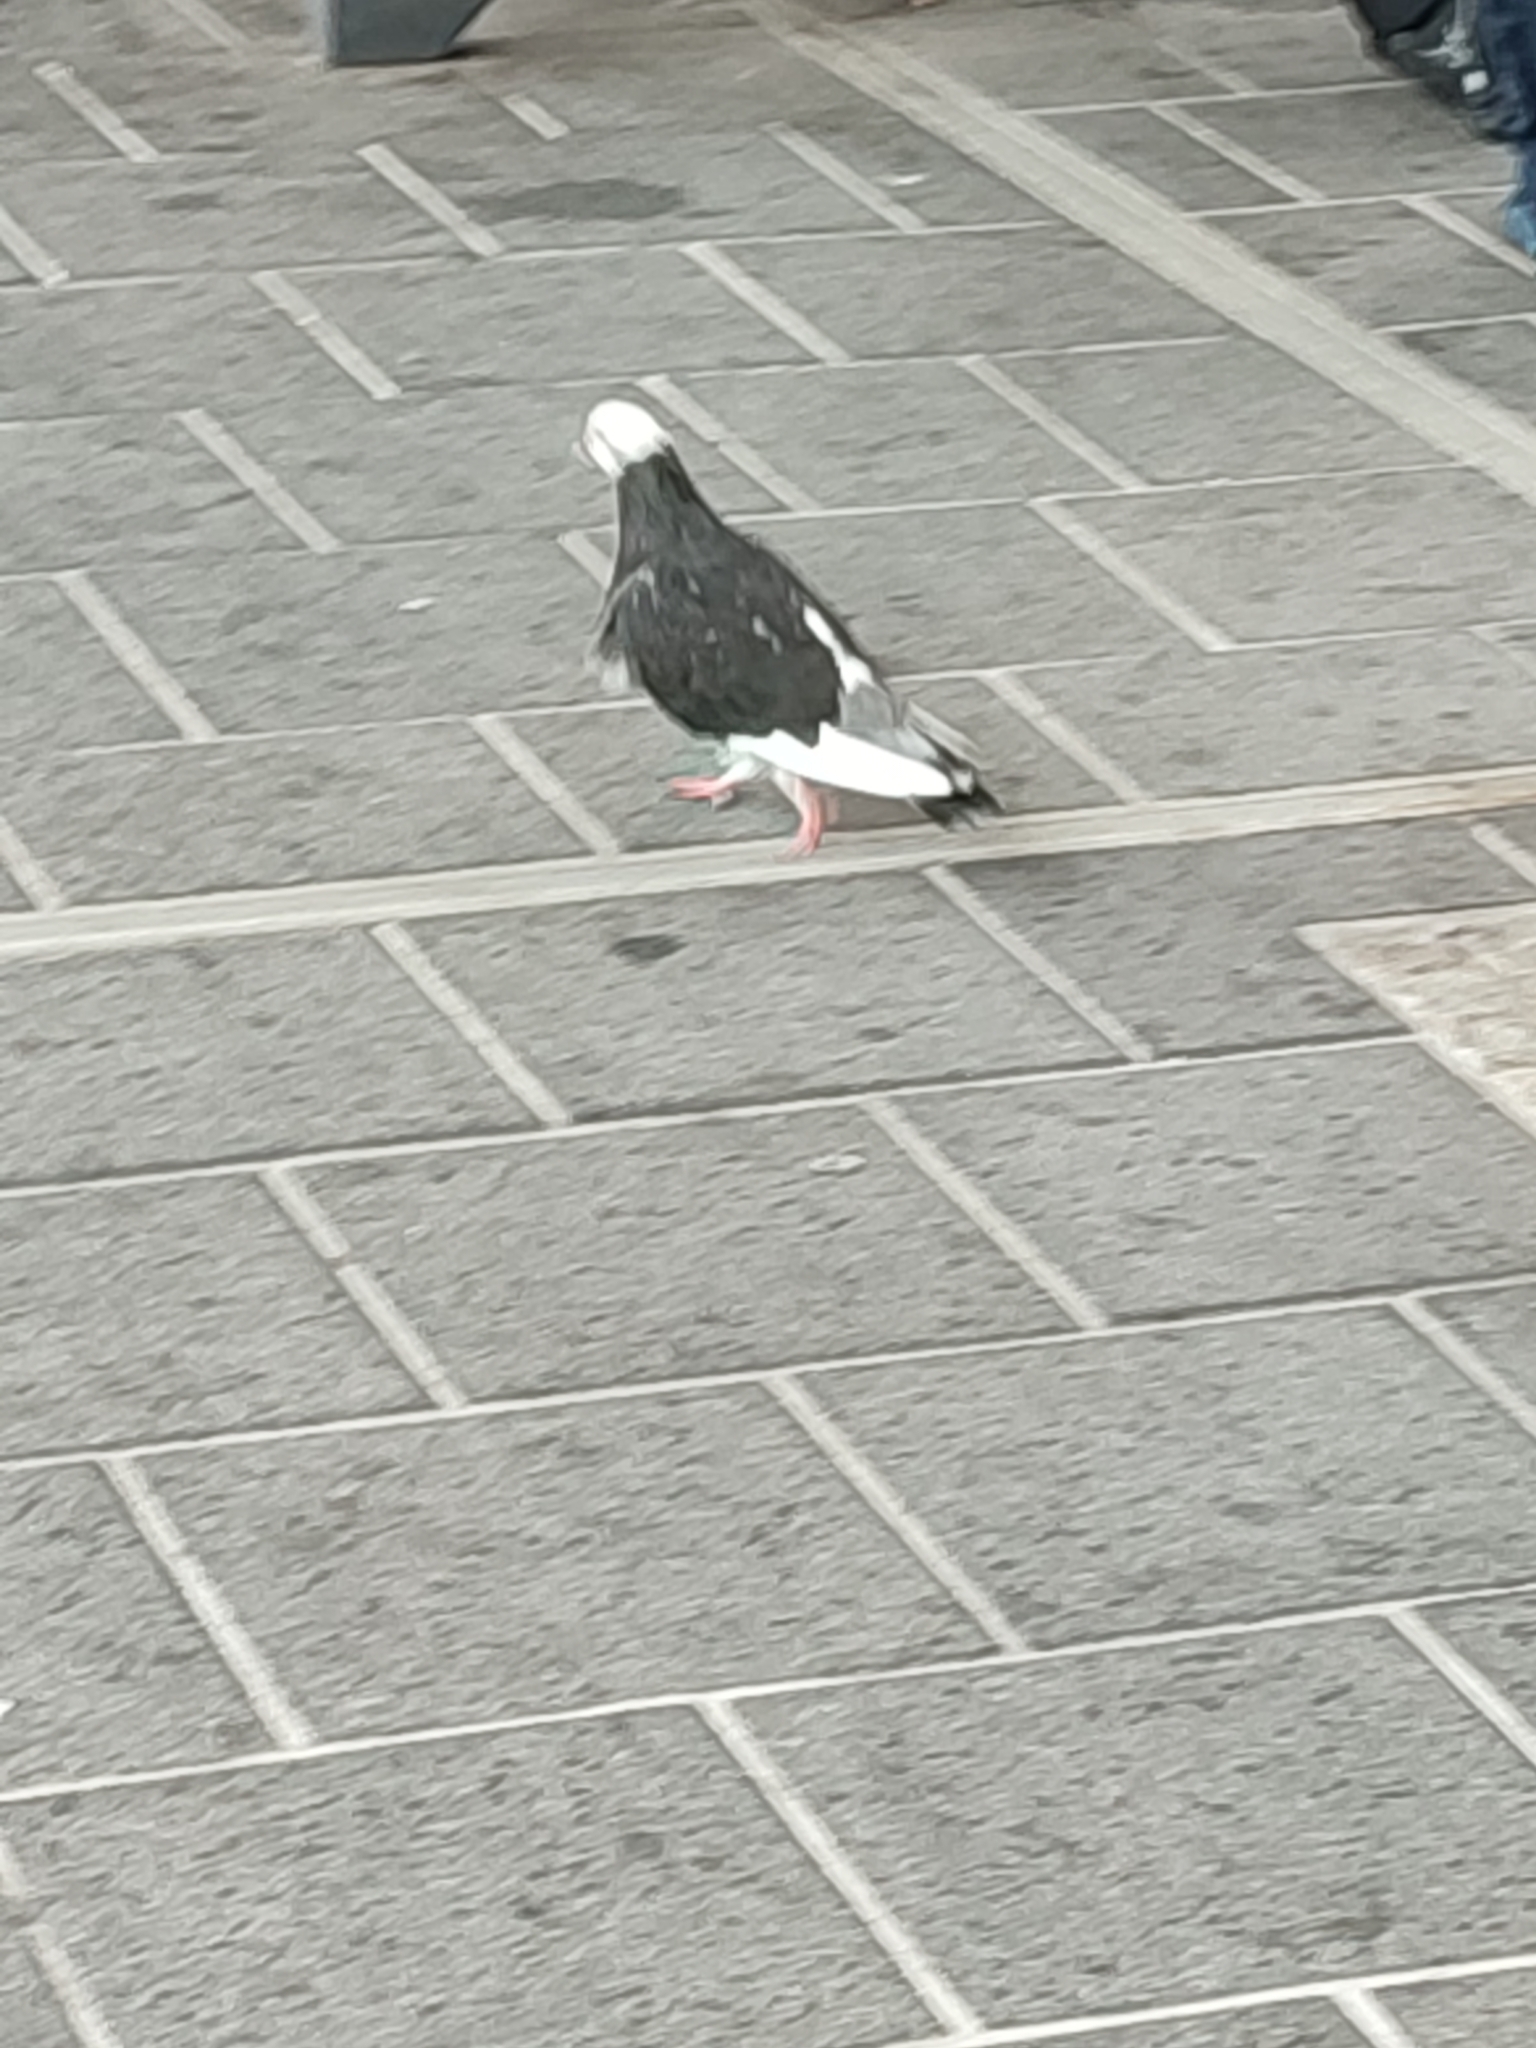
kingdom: Animalia
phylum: Chordata
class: Aves
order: Columbiformes
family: Columbidae
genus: Columba
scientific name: Columba livia
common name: Rock pigeon
